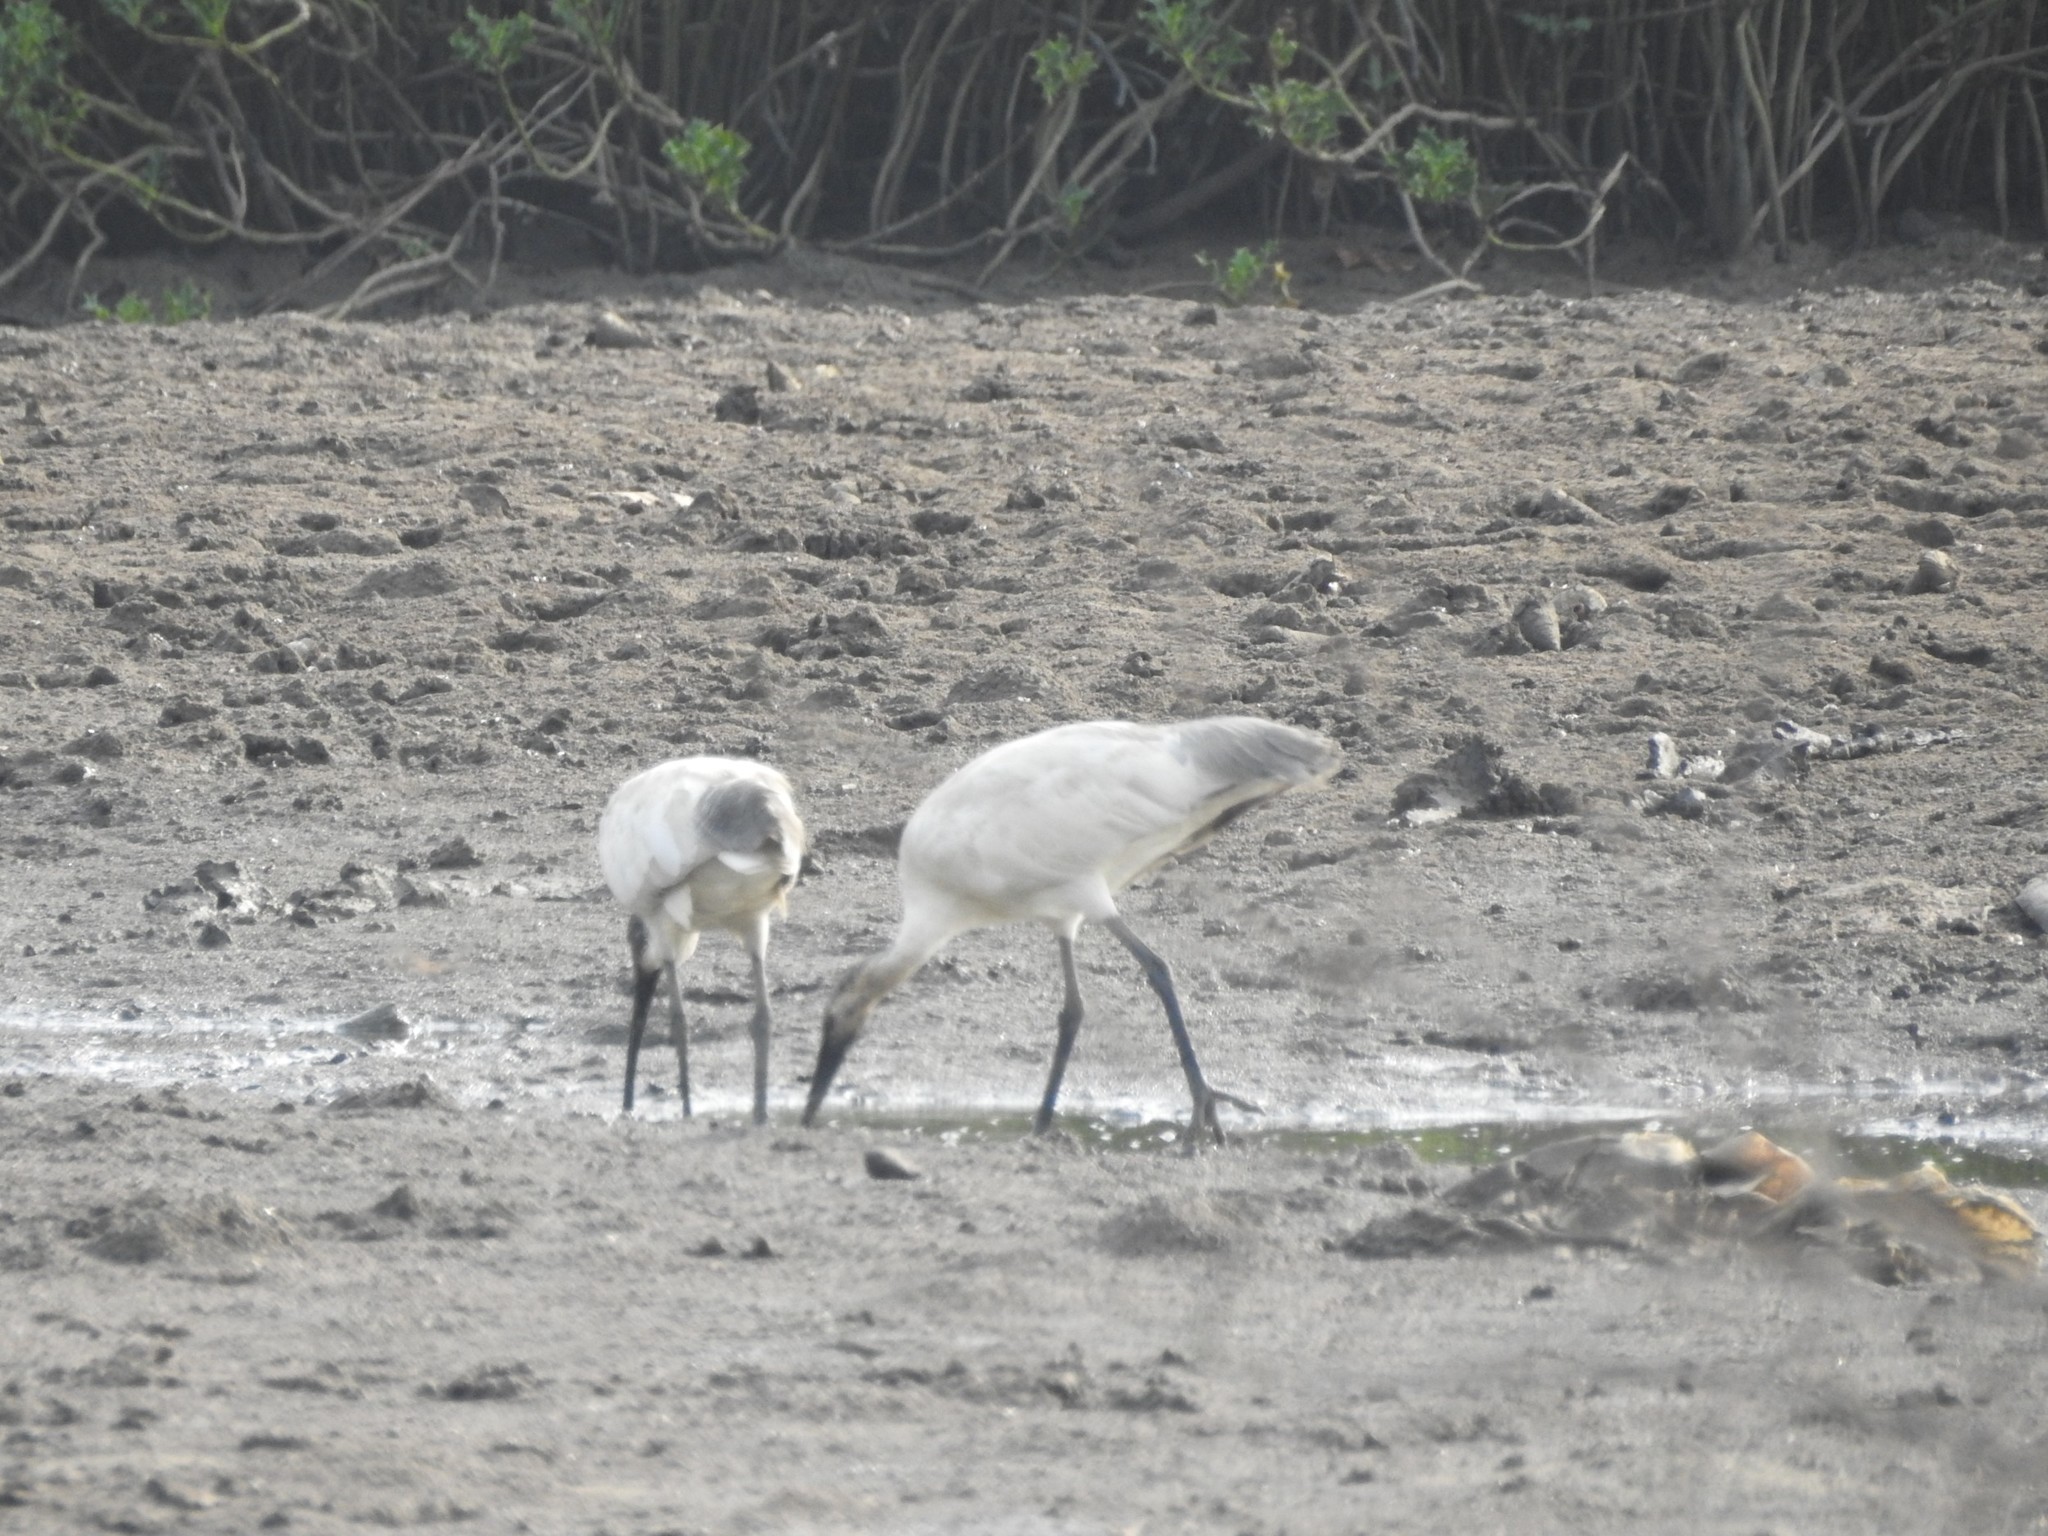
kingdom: Animalia
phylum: Chordata
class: Aves
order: Pelecaniformes
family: Threskiornithidae
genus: Threskiornis
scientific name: Threskiornis melanocephalus
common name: Black-headed ibis
